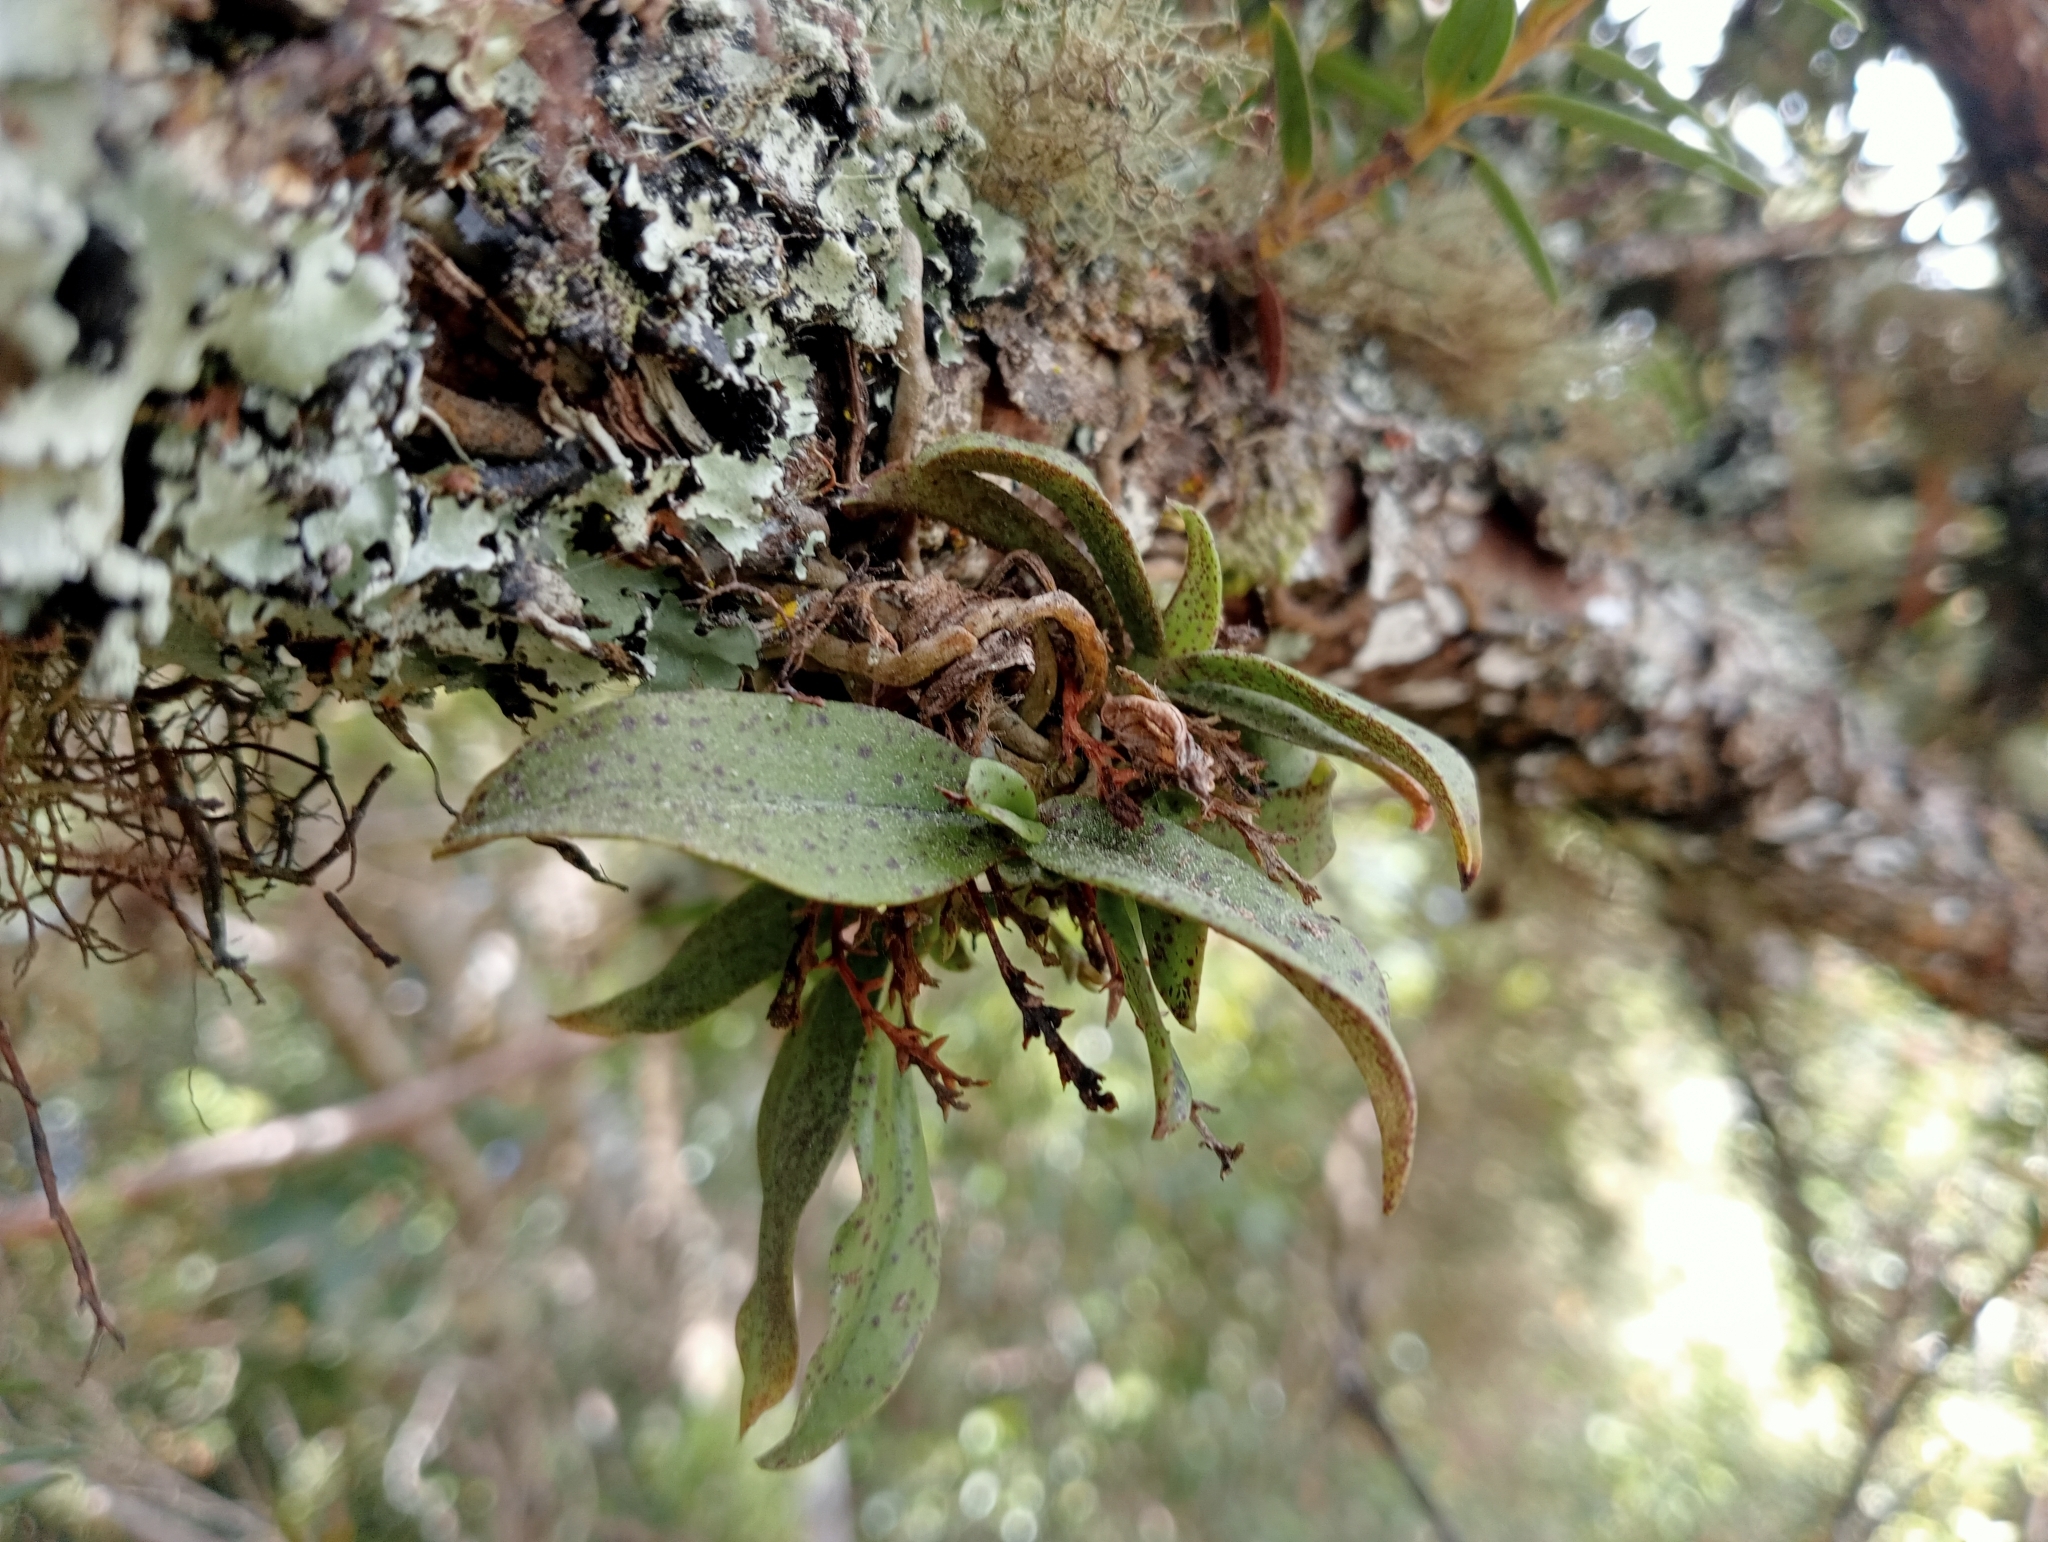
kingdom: Plantae
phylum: Tracheophyta
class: Liliopsida
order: Asparagales
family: Orchidaceae
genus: Drymoanthus
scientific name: Drymoanthus flavus
